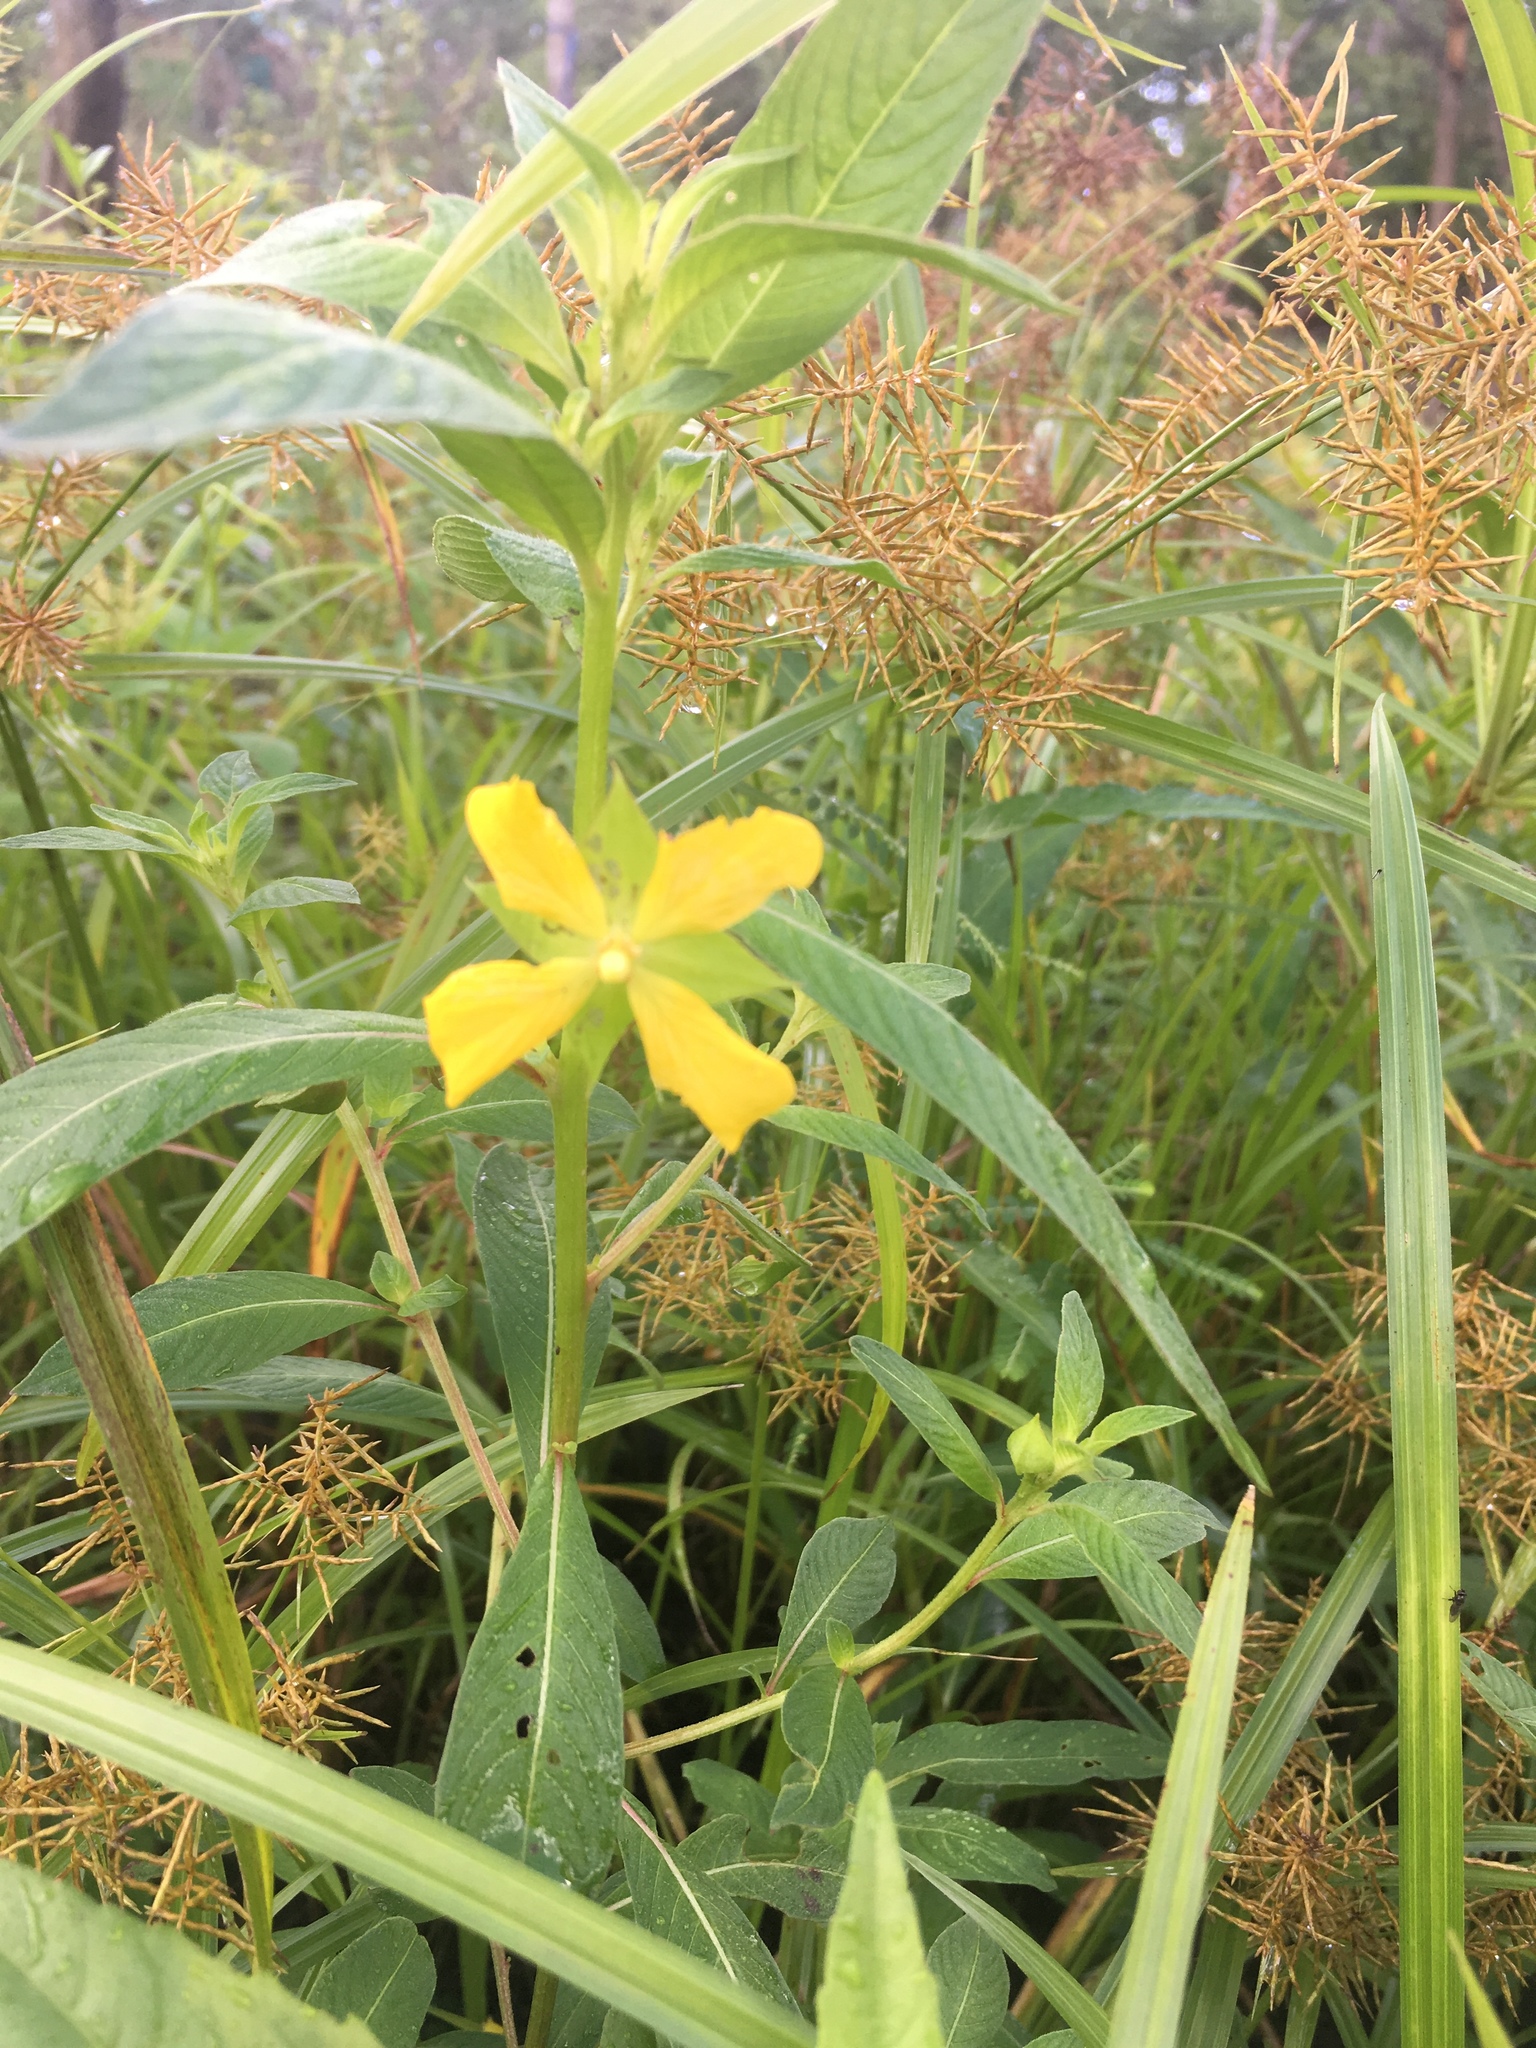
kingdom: Plantae
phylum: Tracheophyta
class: Magnoliopsida
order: Myrtales
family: Onagraceae
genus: Ludwigia
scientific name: Ludwigia octovalvis
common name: Water-primrose
